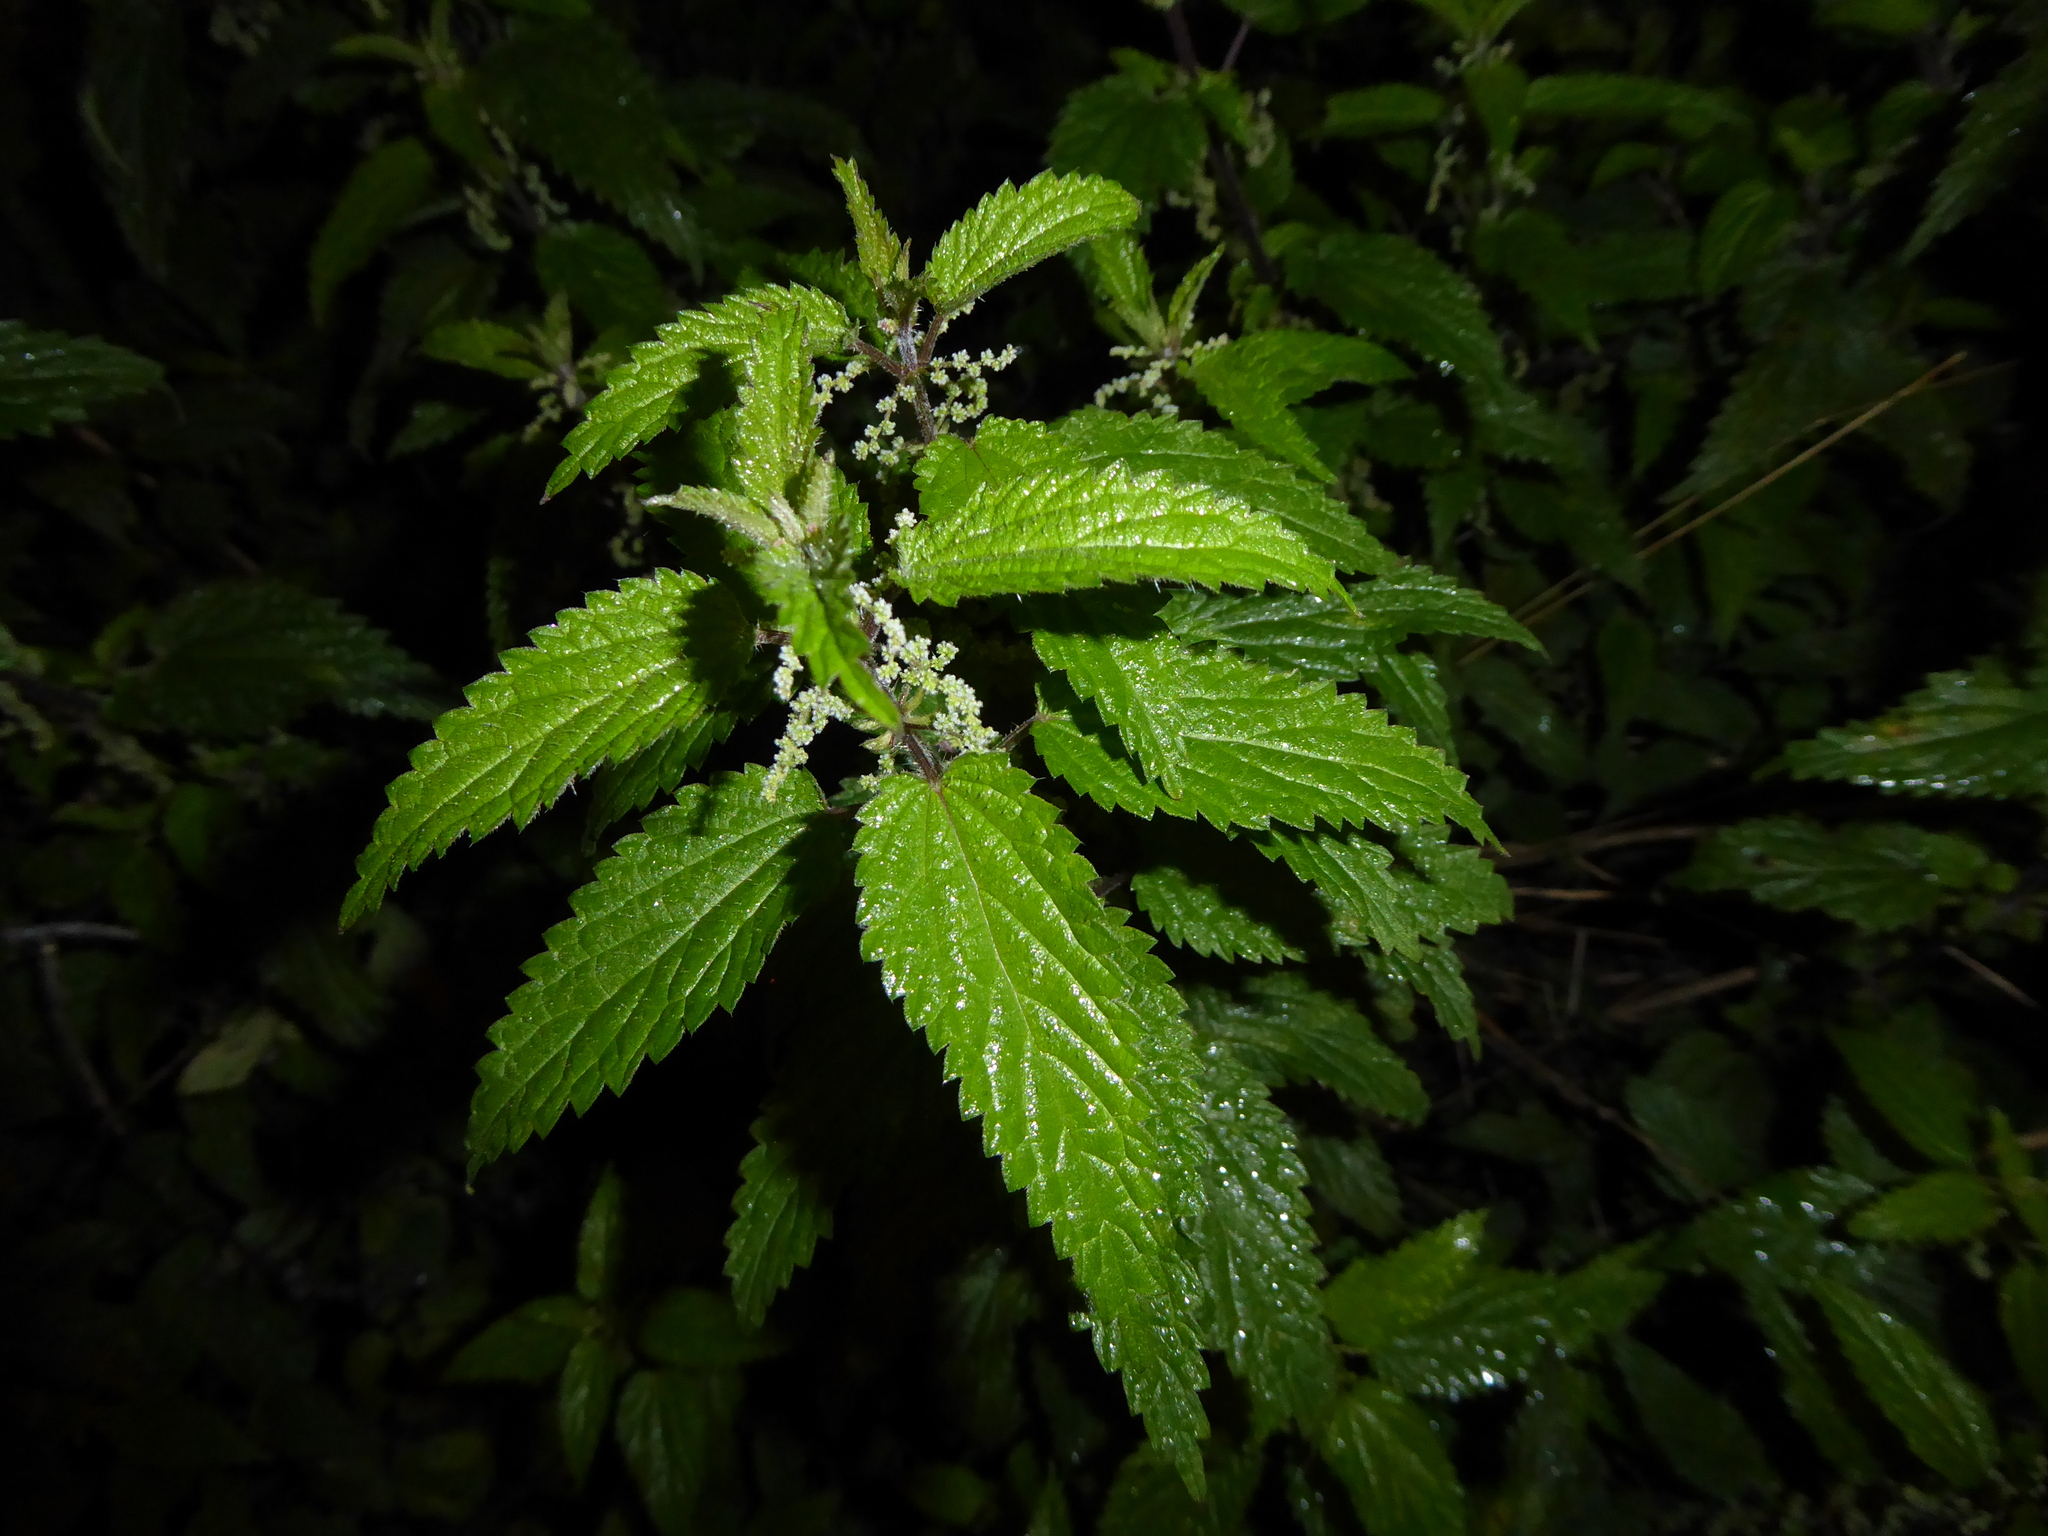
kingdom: Plantae
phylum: Tracheophyta
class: Magnoliopsida
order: Rosales
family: Urticaceae
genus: Urtica
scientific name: Urtica dioica
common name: Common nettle
